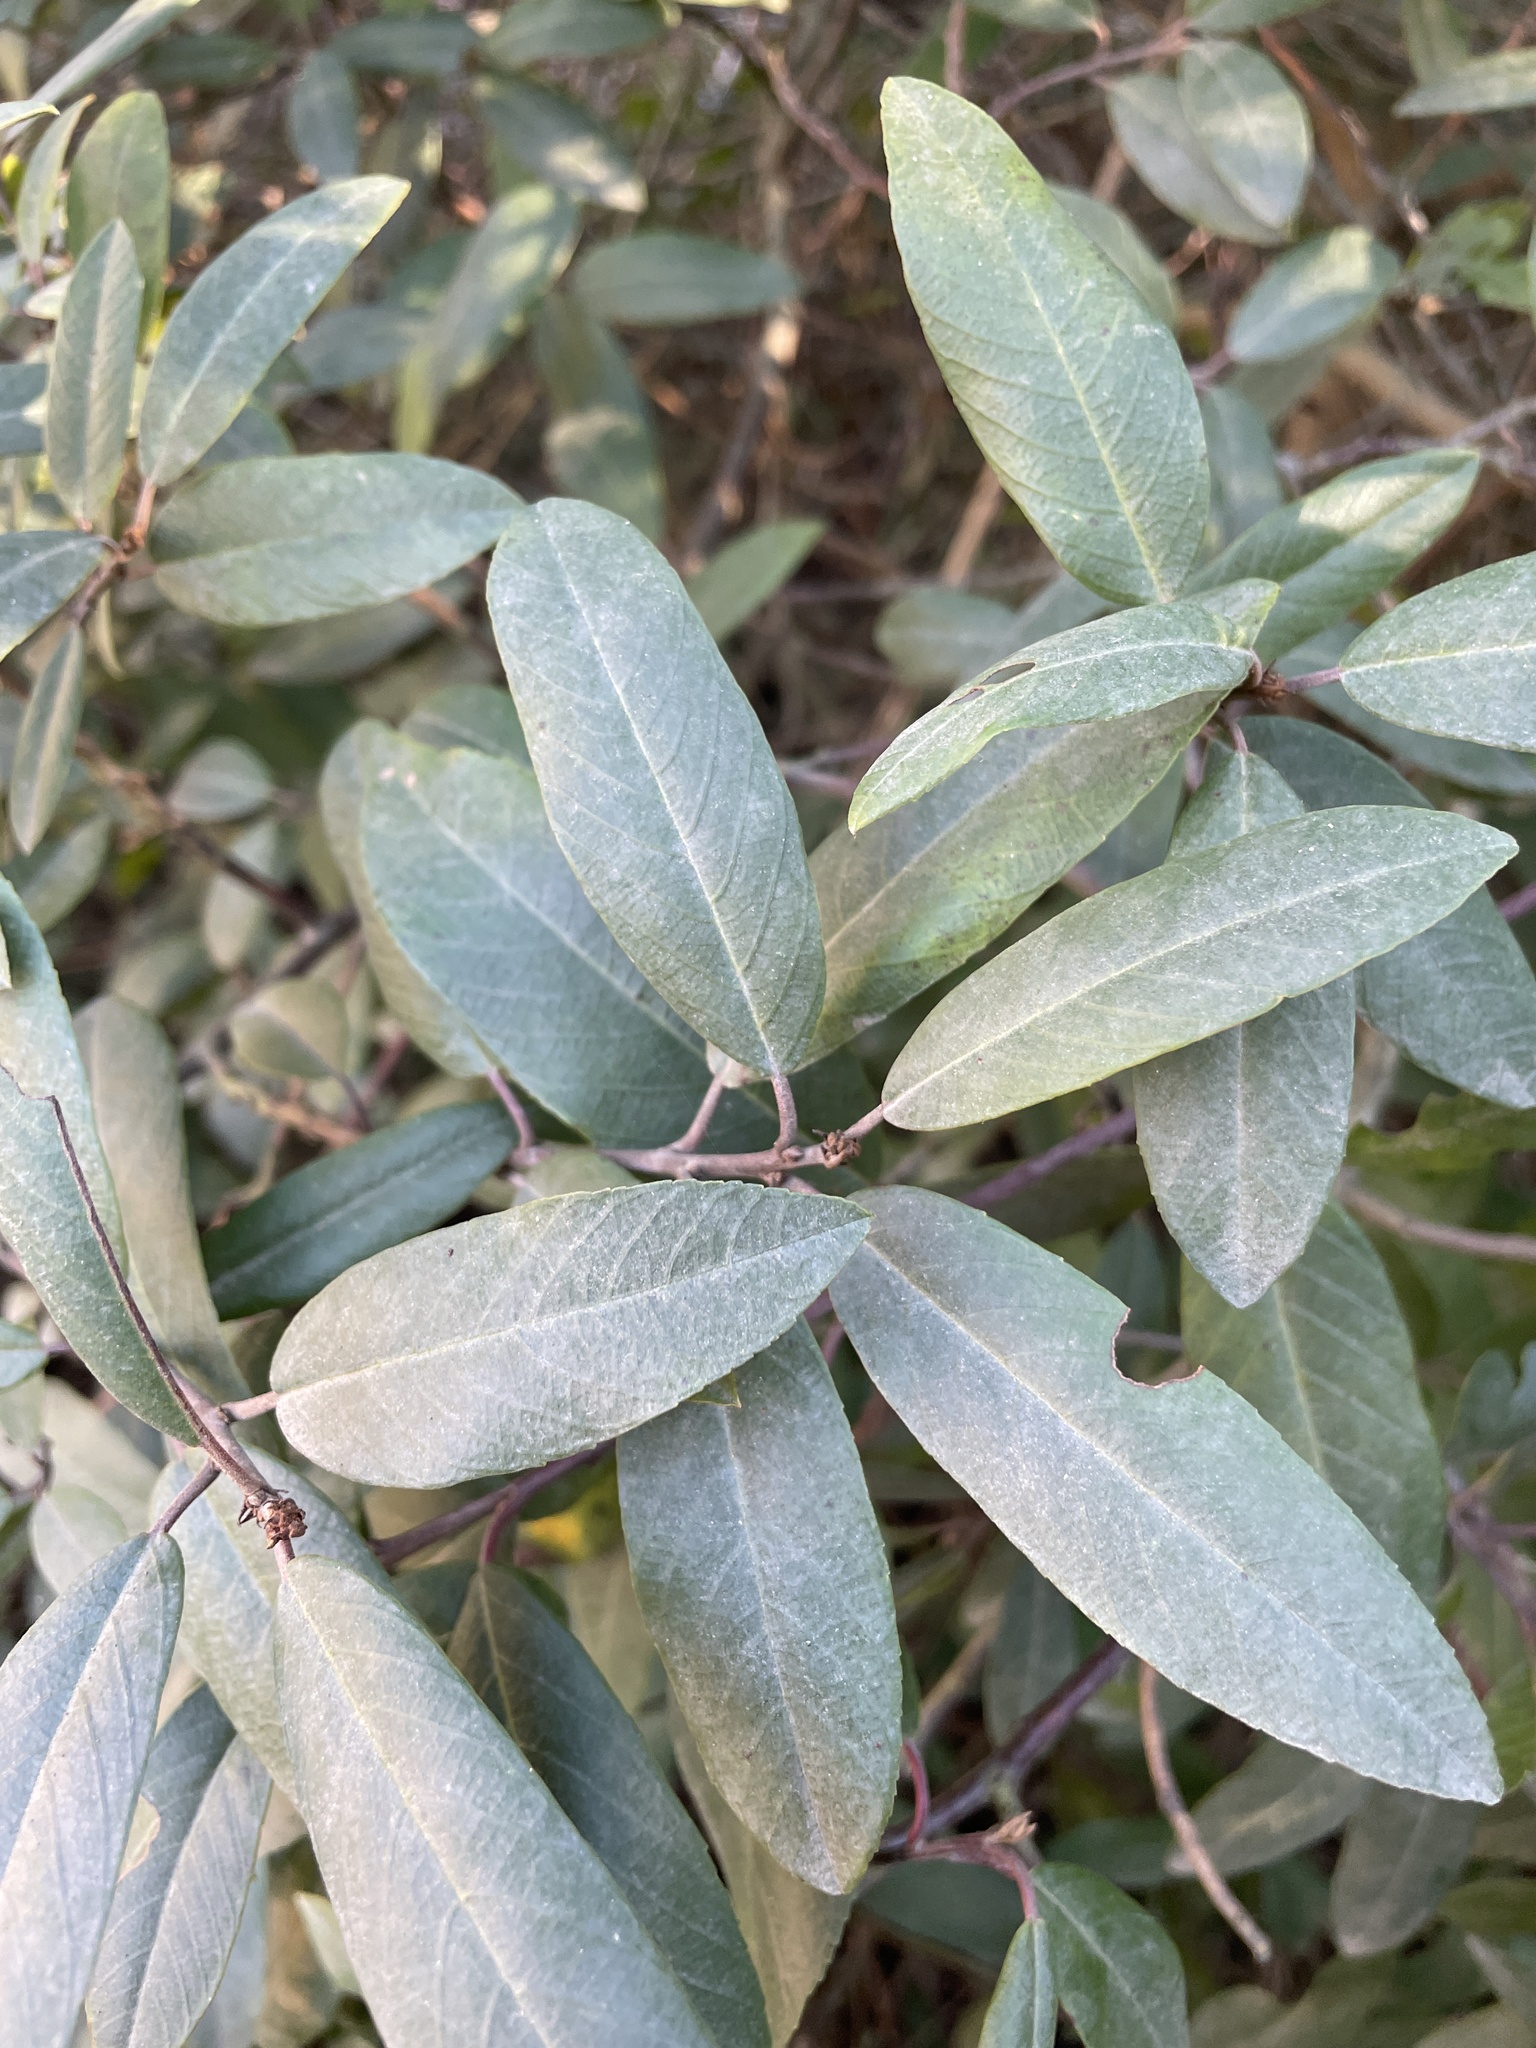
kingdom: Plantae
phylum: Tracheophyta
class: Magnoliopsida
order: Rosales
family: Rhamnaceae
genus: Frangula
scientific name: Frangula californica
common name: California buckthorn
